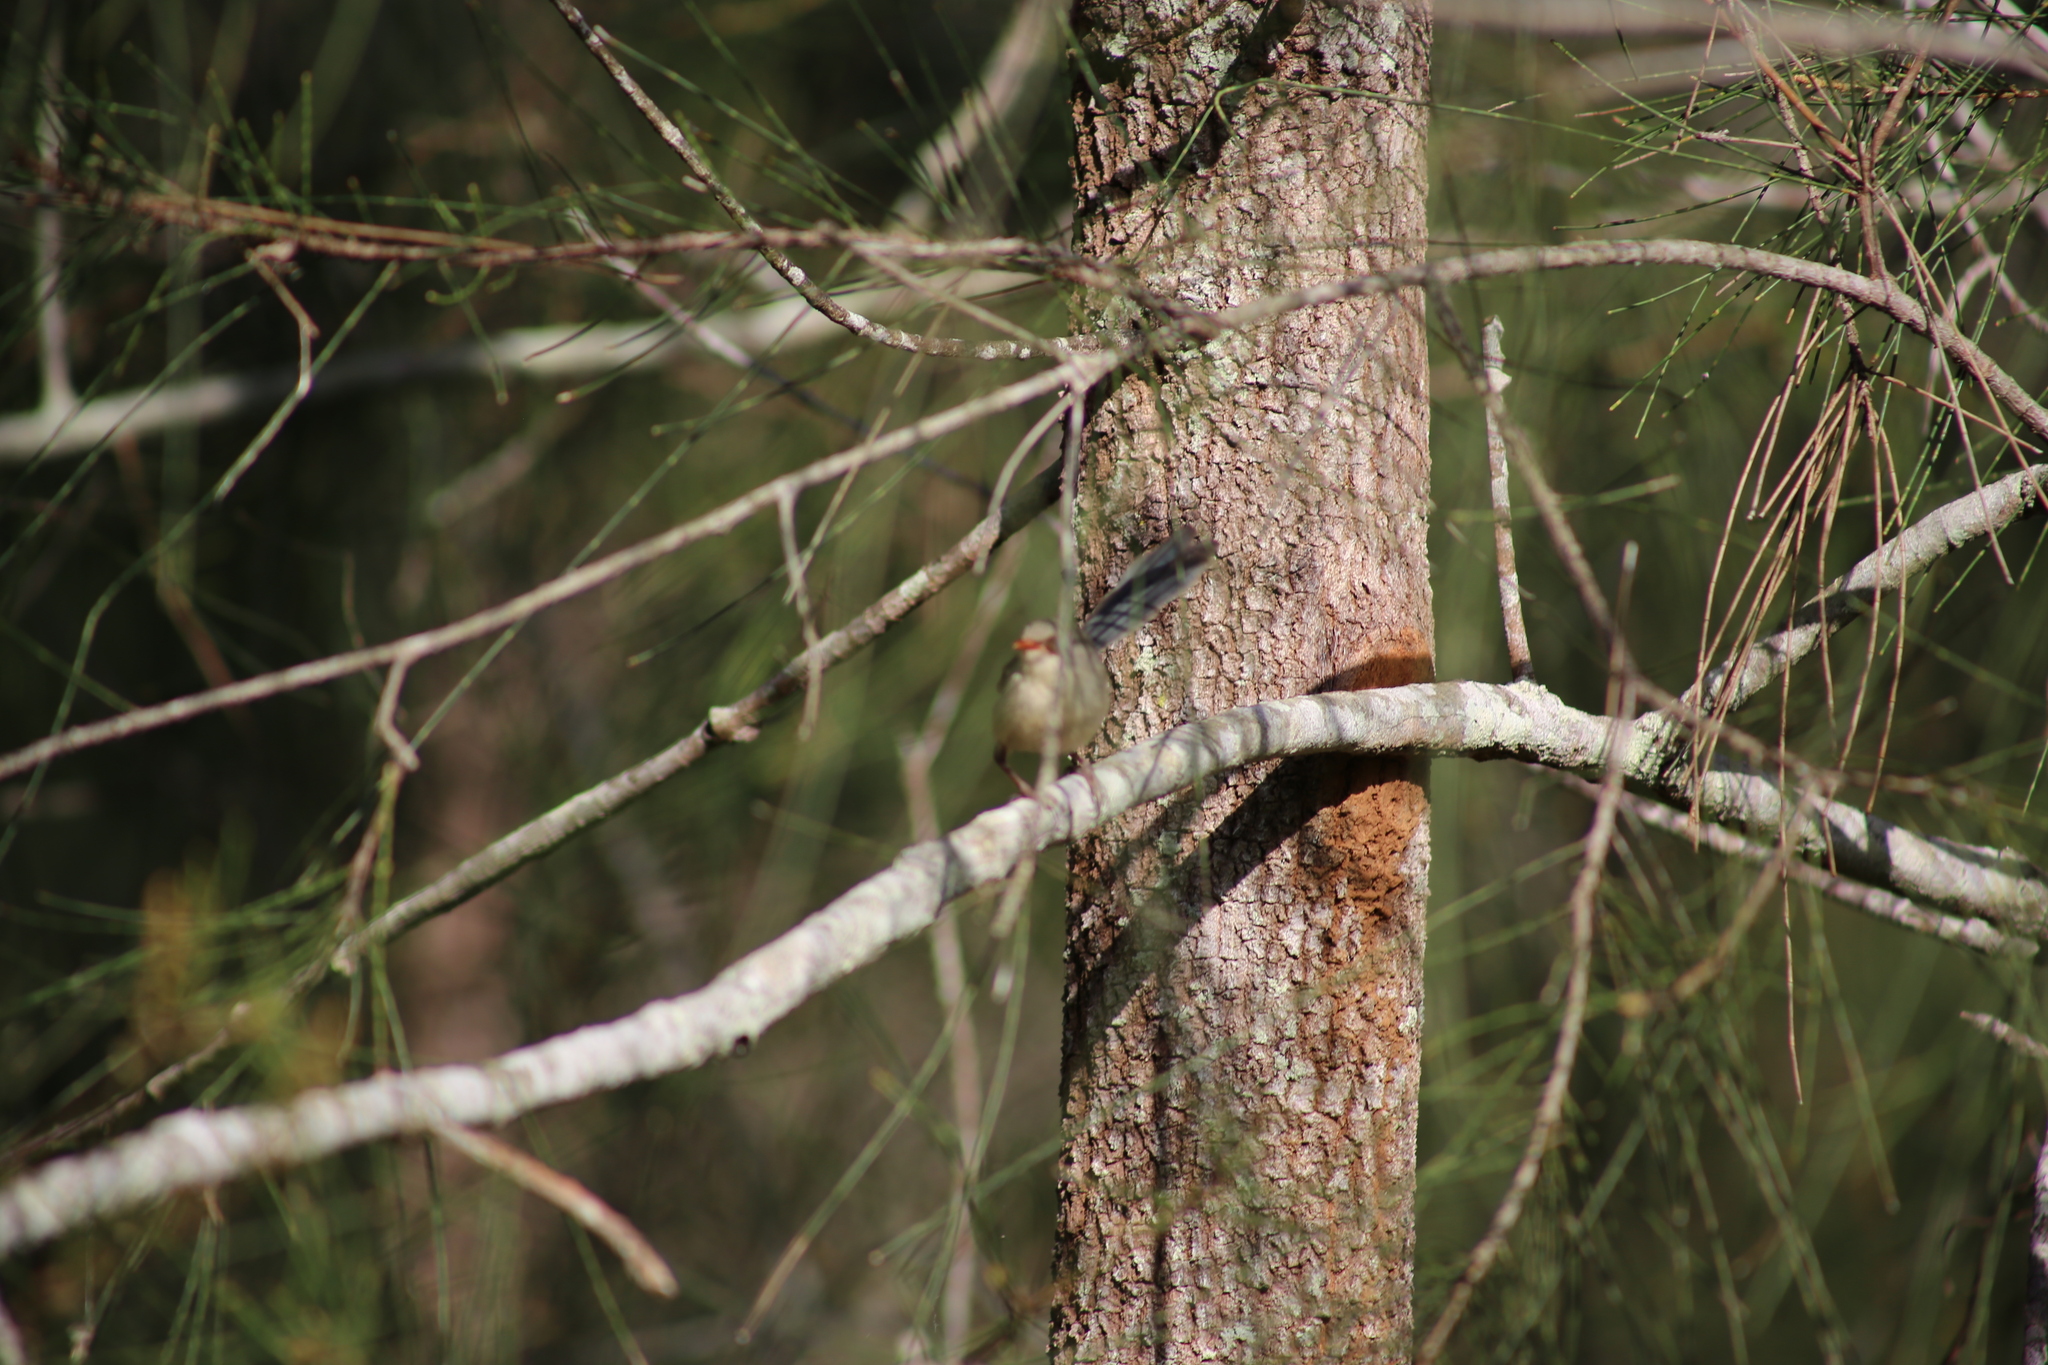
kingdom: Animalia
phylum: Chordata
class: Aves
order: Passeriformes
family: Maluridae
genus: Malurus
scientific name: Malurus lamberti
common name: Variegated fairywren
